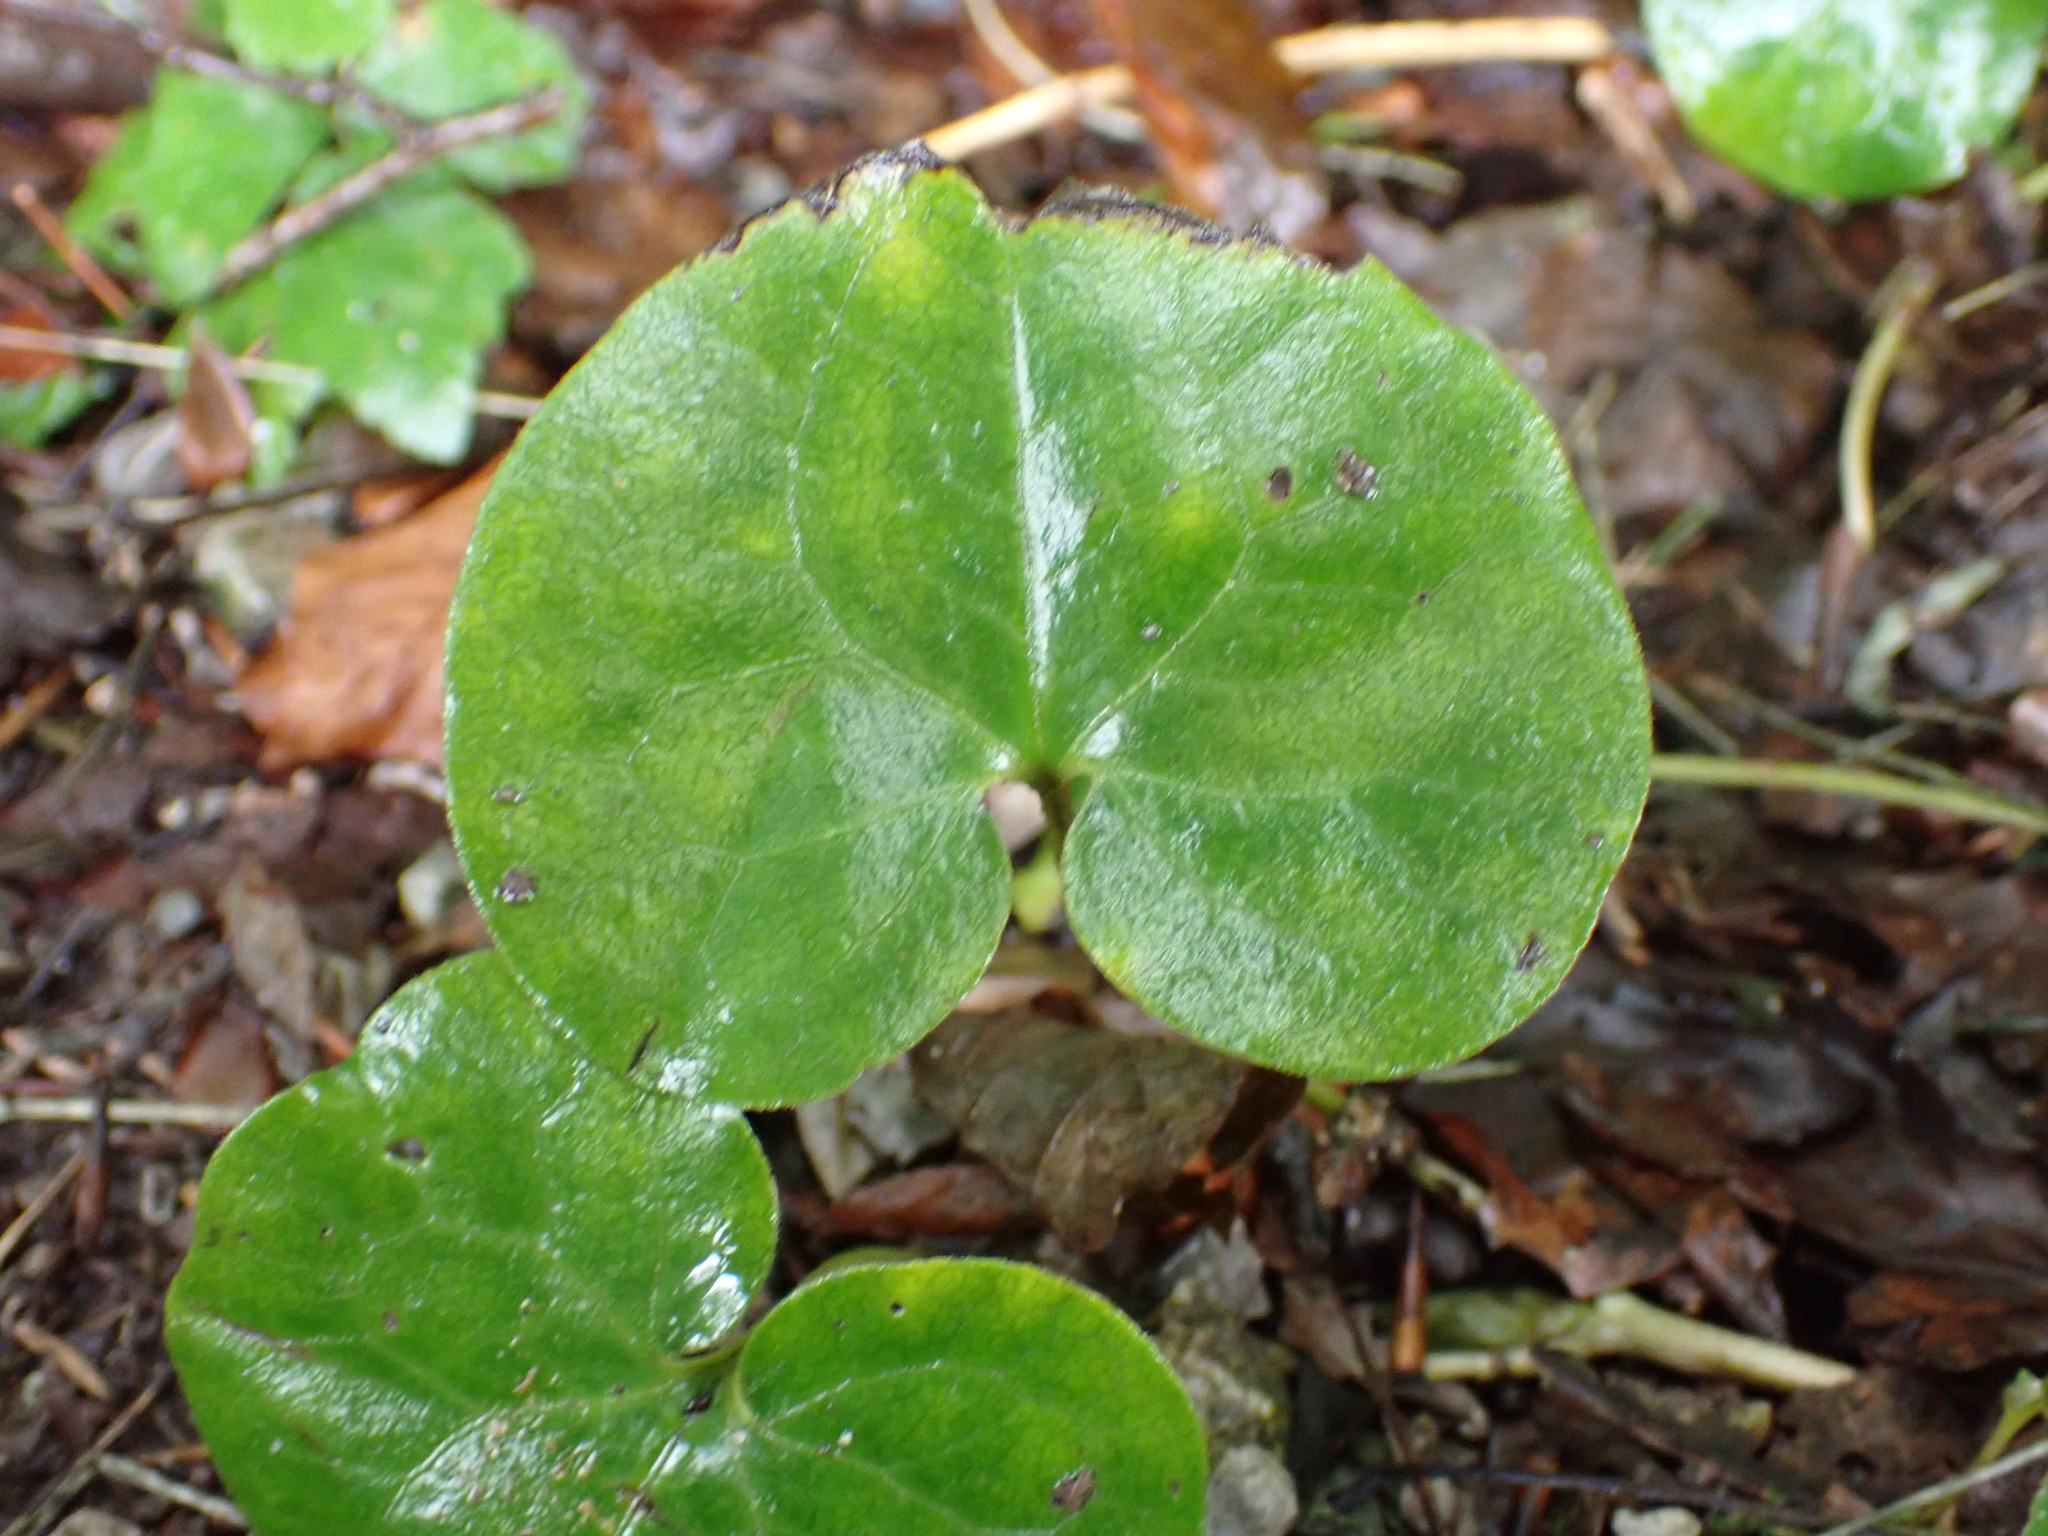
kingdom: Plantae
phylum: Tracheophyta
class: Magnoliopsida
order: Piperales
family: Aristolochiaceae
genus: Asarum
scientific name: Asarum europaeum
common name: Asarabacca
